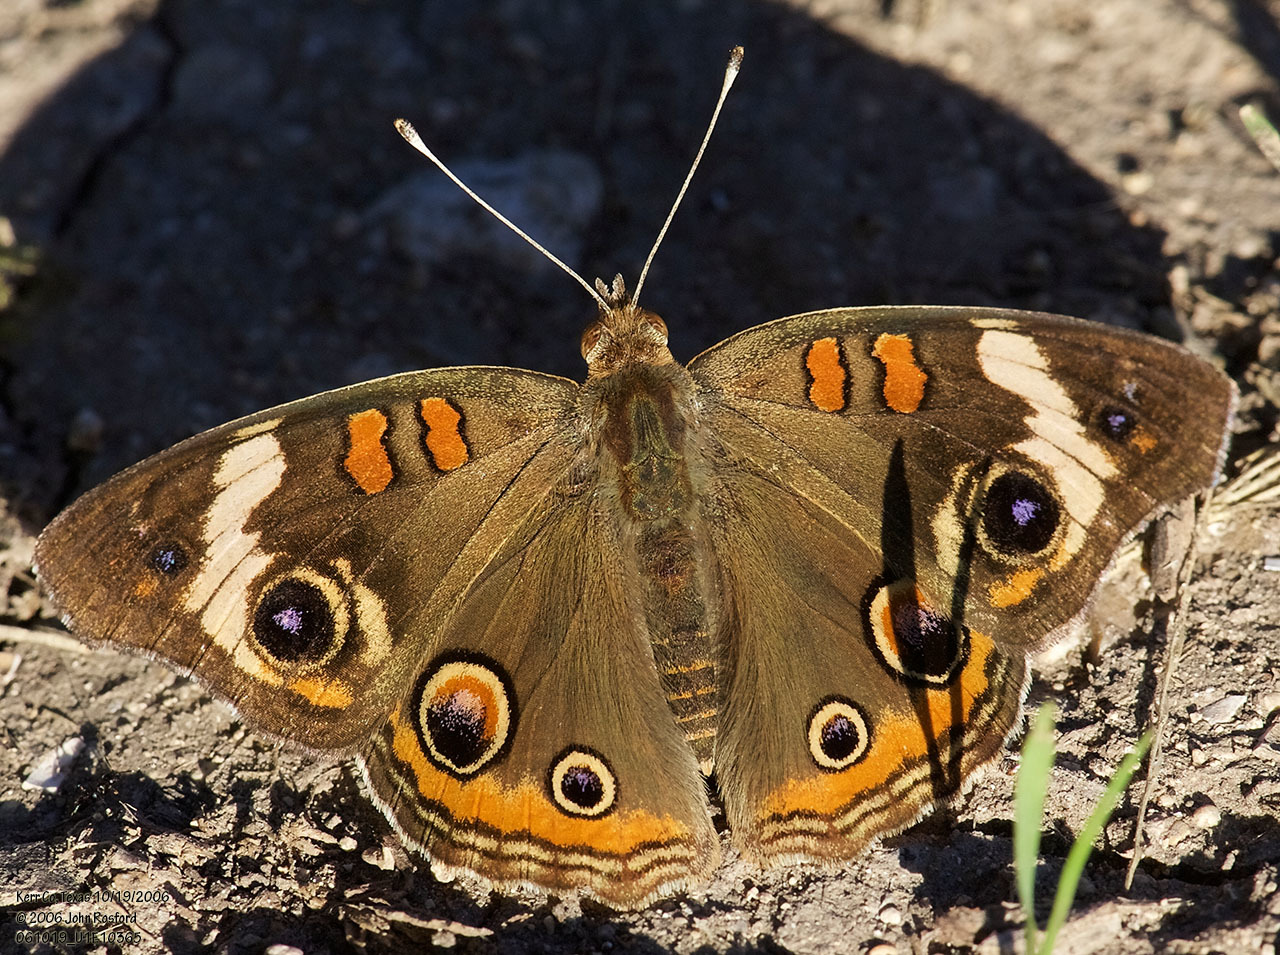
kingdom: Animalia
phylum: Arthropoda
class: Insecta
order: Lepidoptera
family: Nymphalidae
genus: Junonia
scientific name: Junonia coenia
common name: Common buckeye
